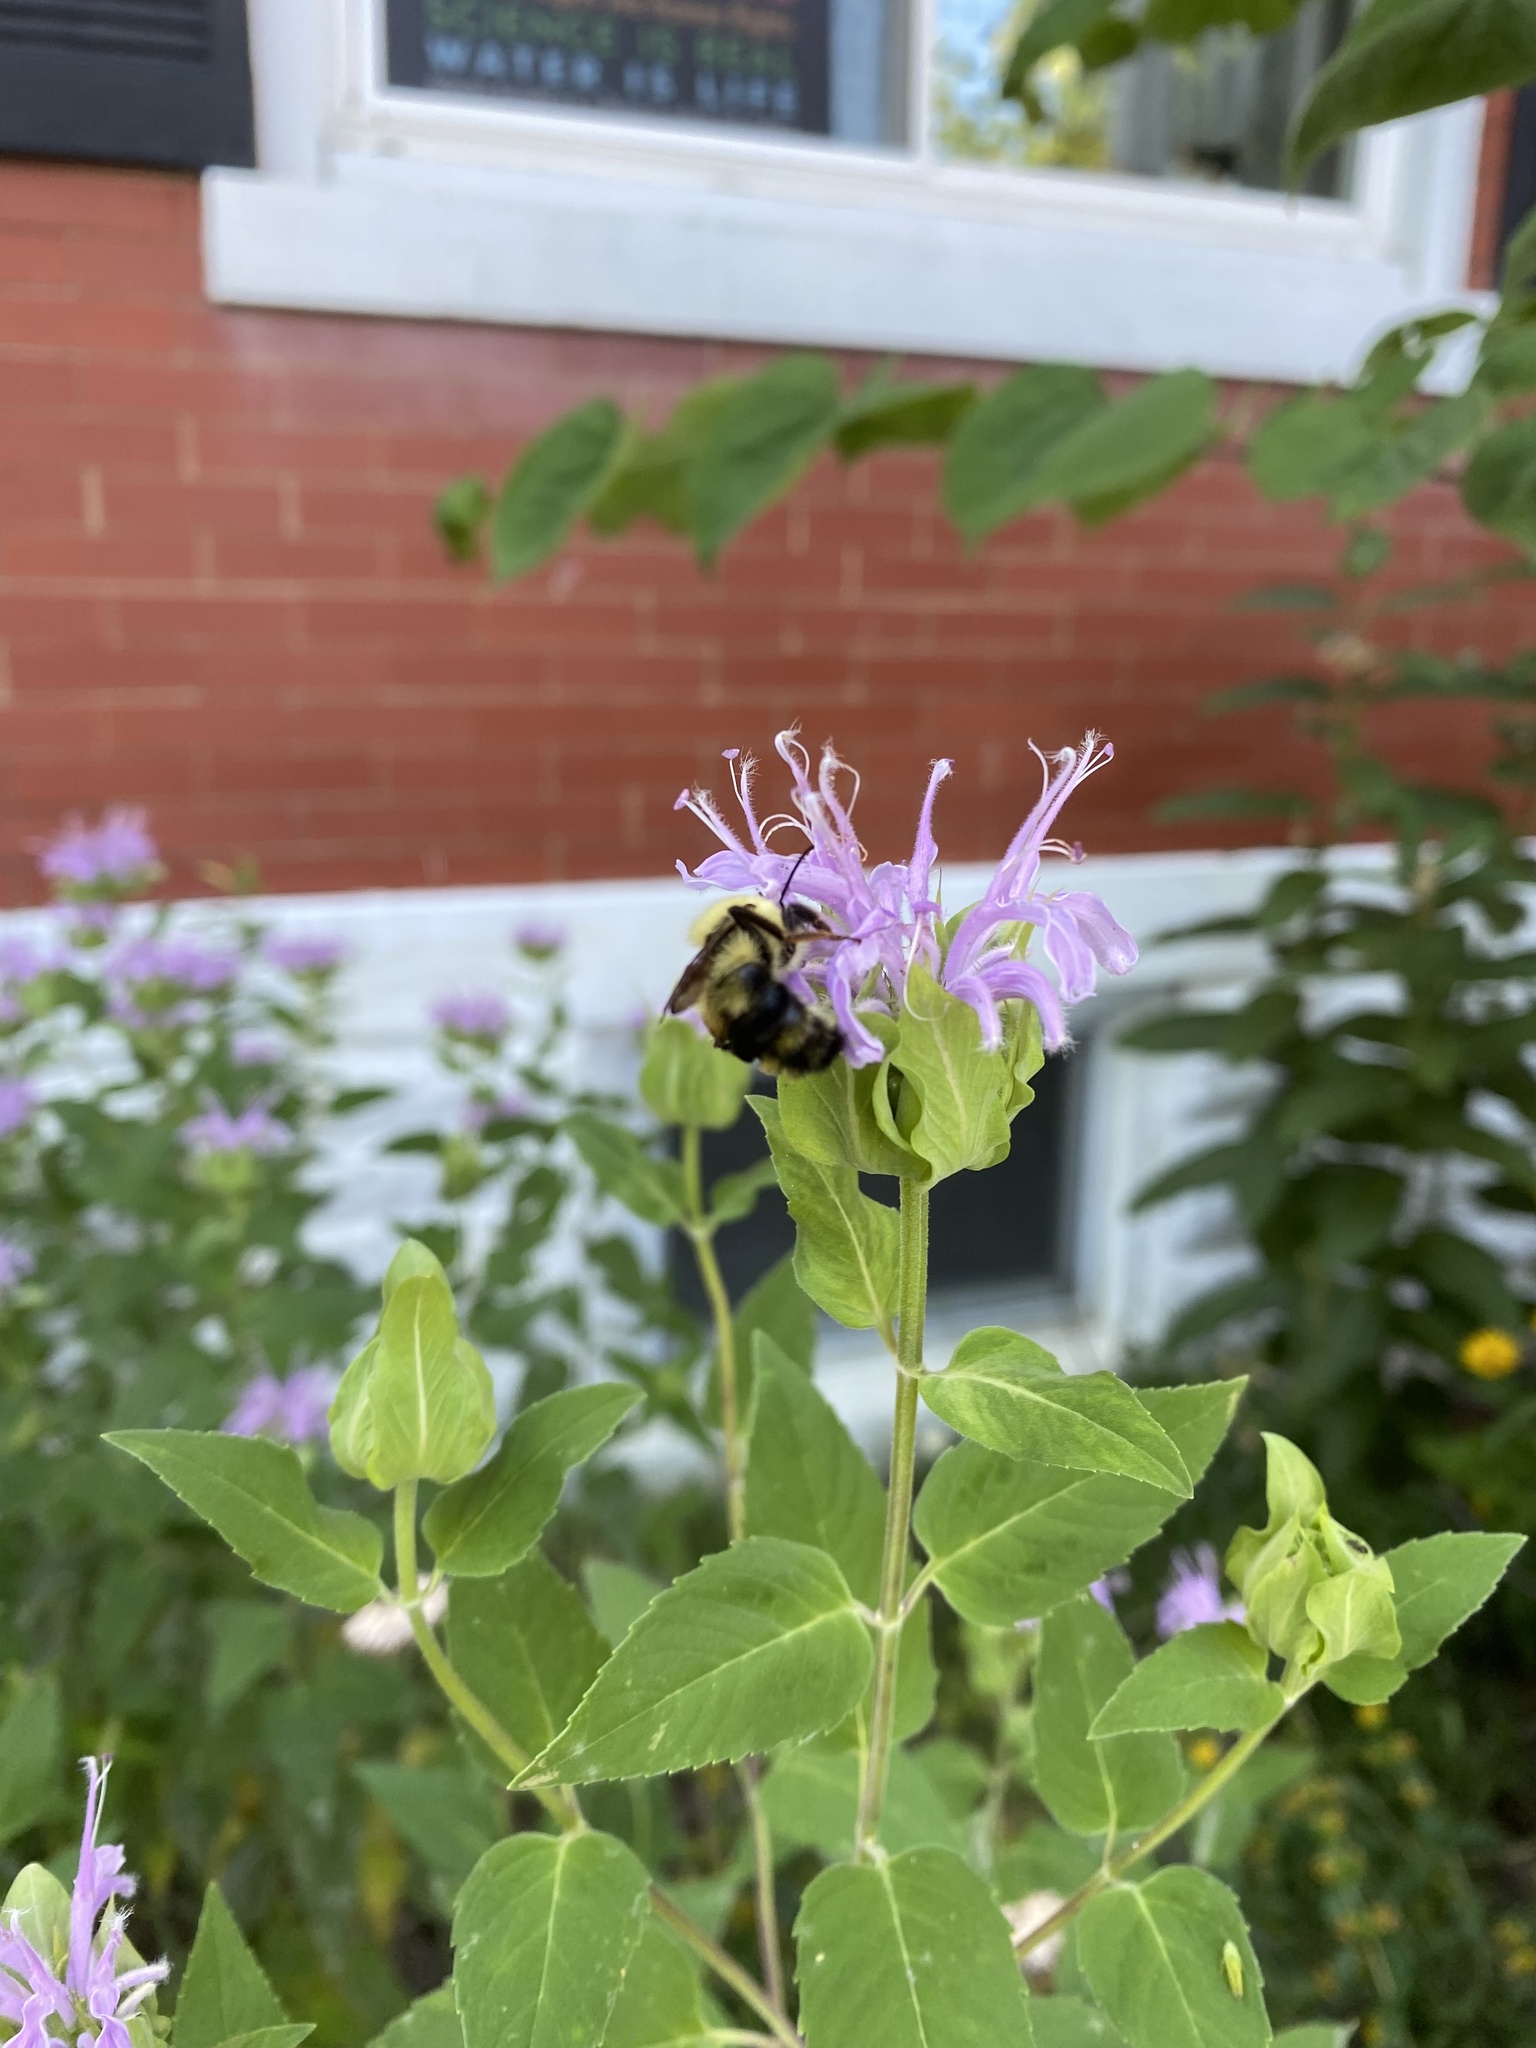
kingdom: Animalia
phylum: Arthropoda
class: Insecta
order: Hymenoptera
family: Apidae
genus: Bombus
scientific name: Bombus bimaculatus
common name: Two-spotted bumble bee
